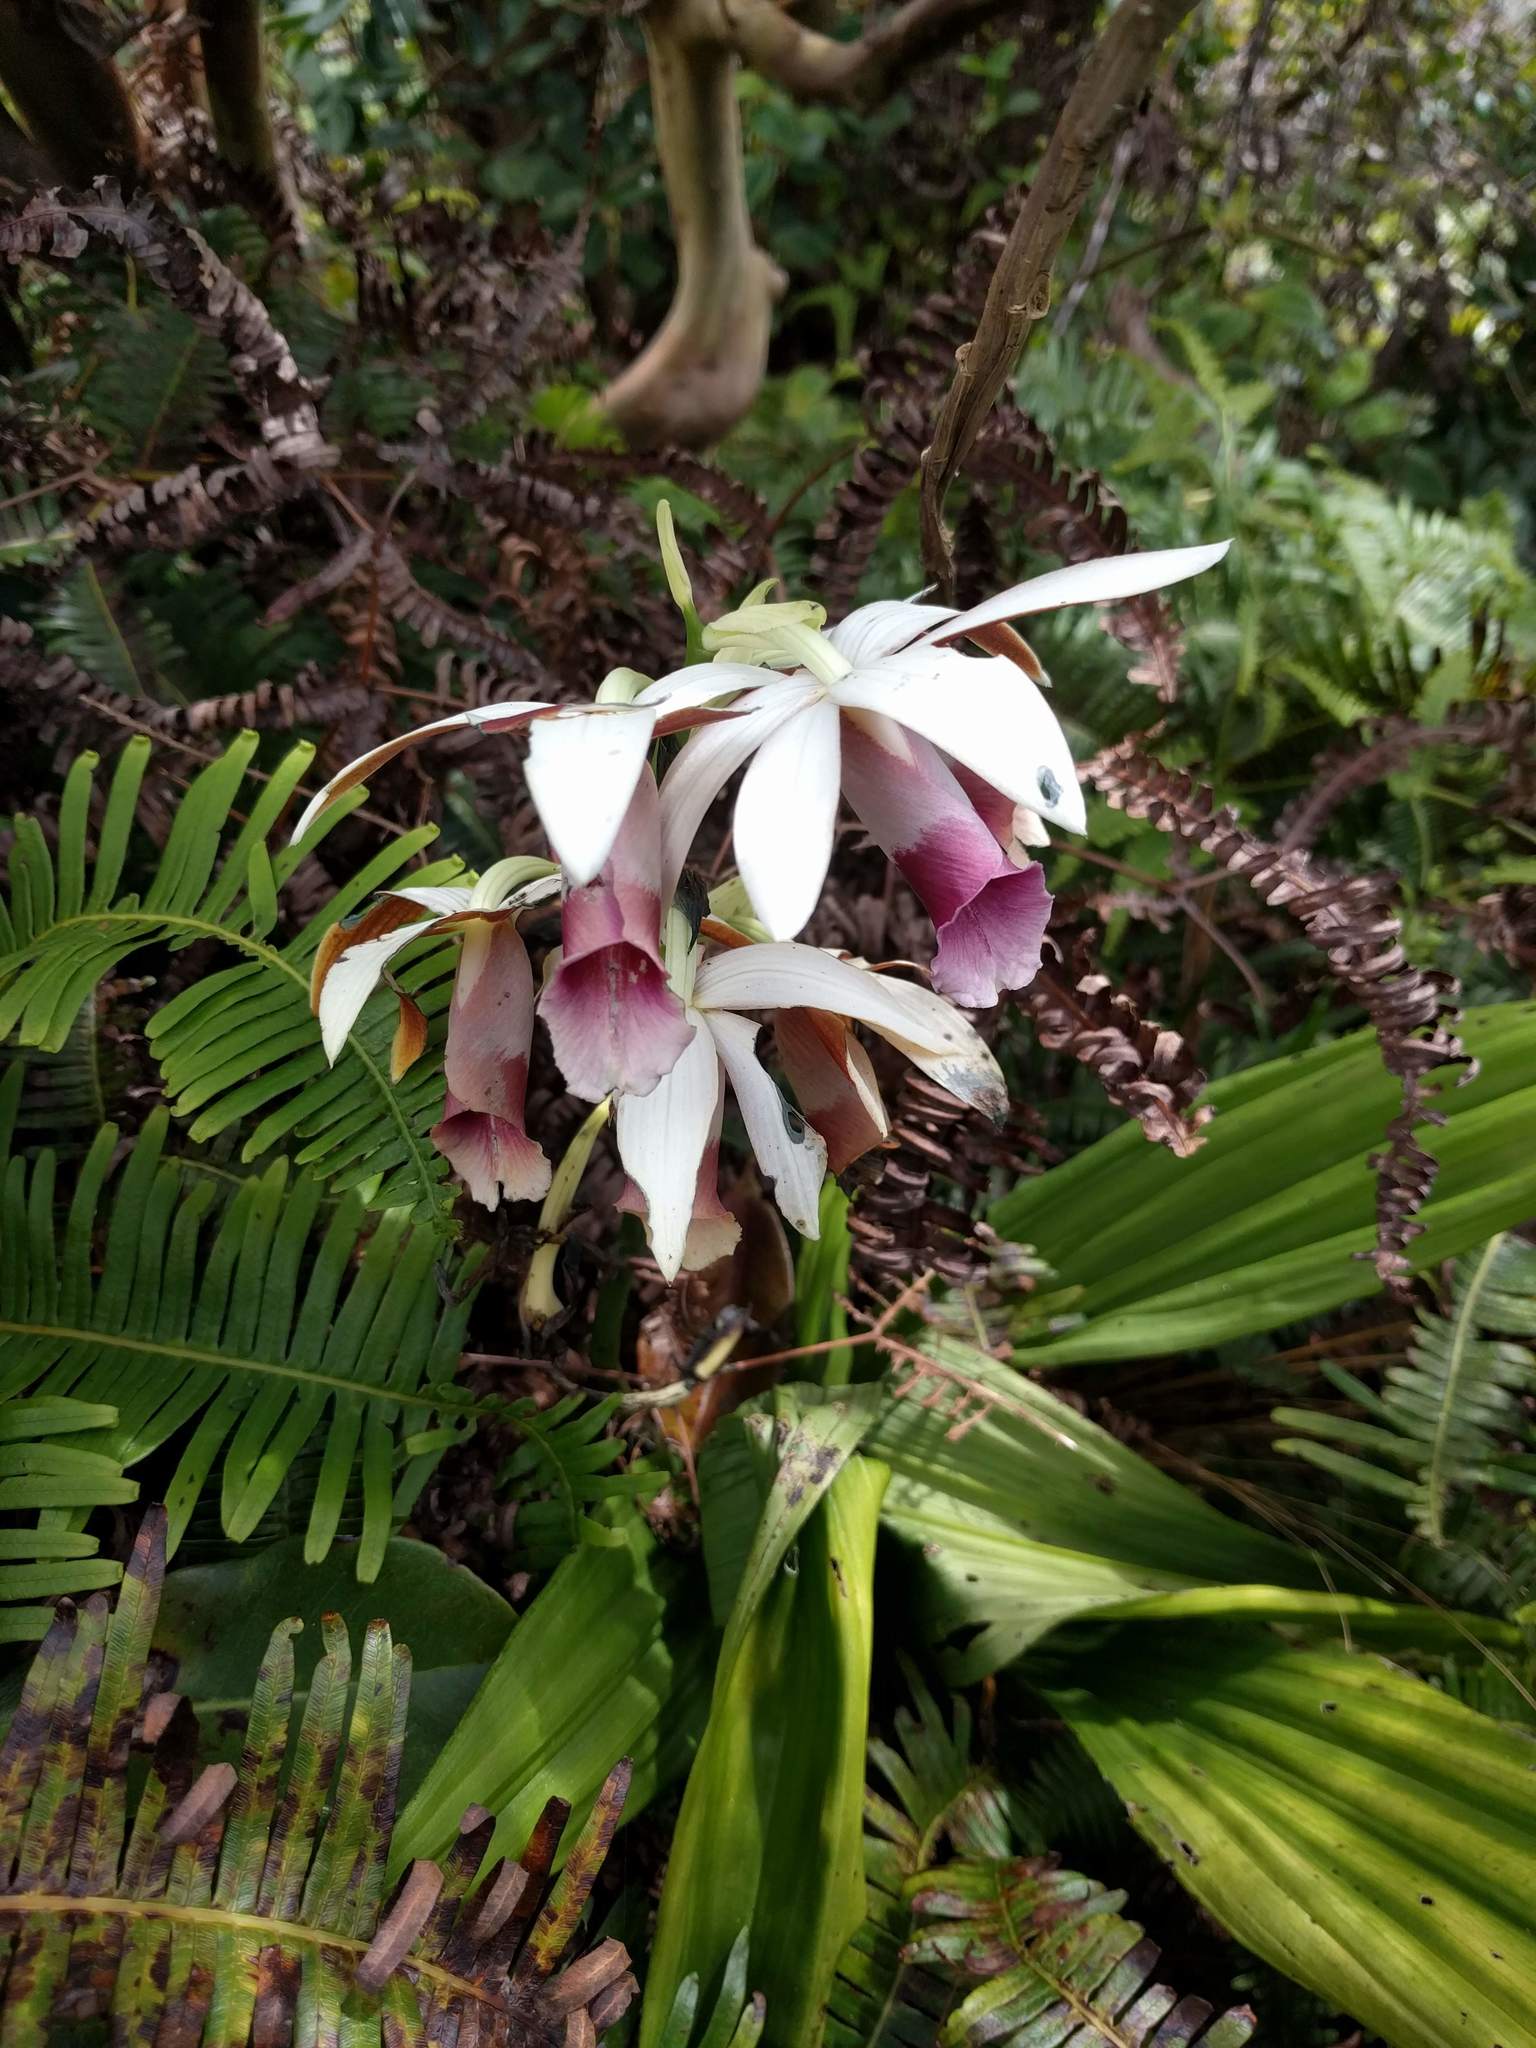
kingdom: Plantae
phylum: Tracheophyta
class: Liliopsida
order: Asparagales
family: Orchidaceae
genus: Calanthe
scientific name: Calanthe tankervilleae
